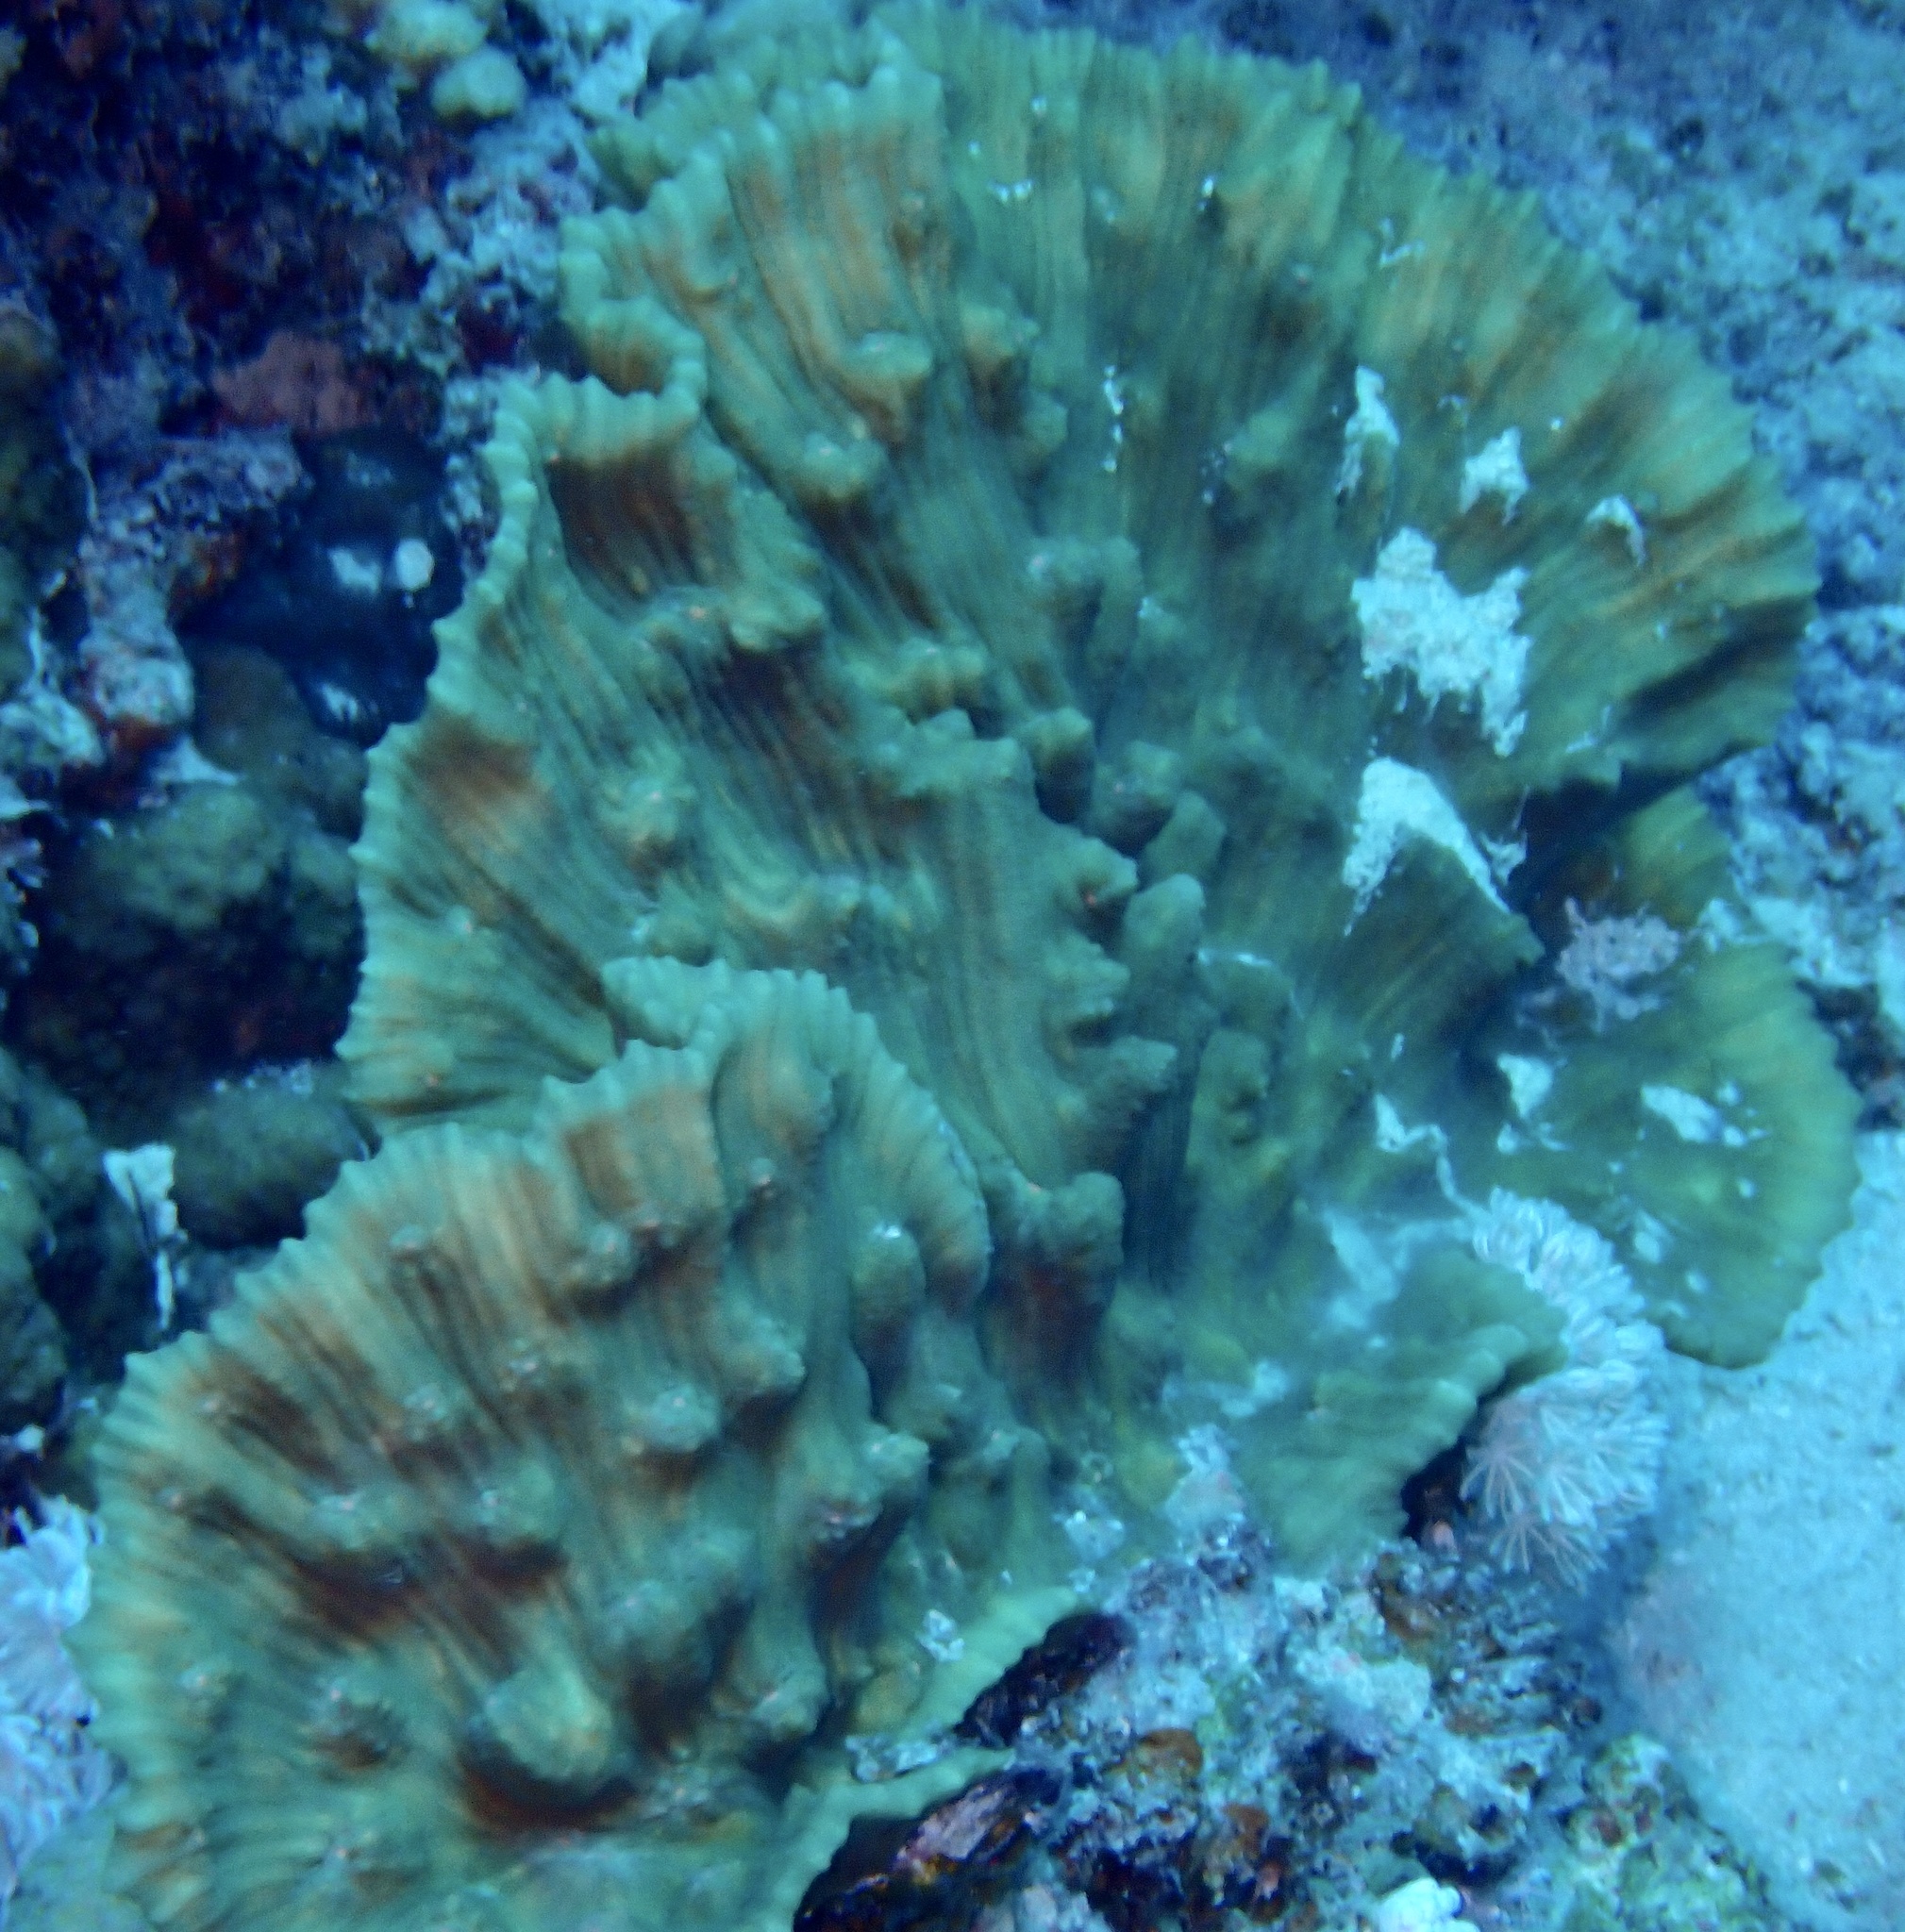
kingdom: Animalia
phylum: Cnidaria
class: Anthozoa
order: Scleractinia
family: Merulinidae
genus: Mycedium
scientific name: Mycedium umbra
